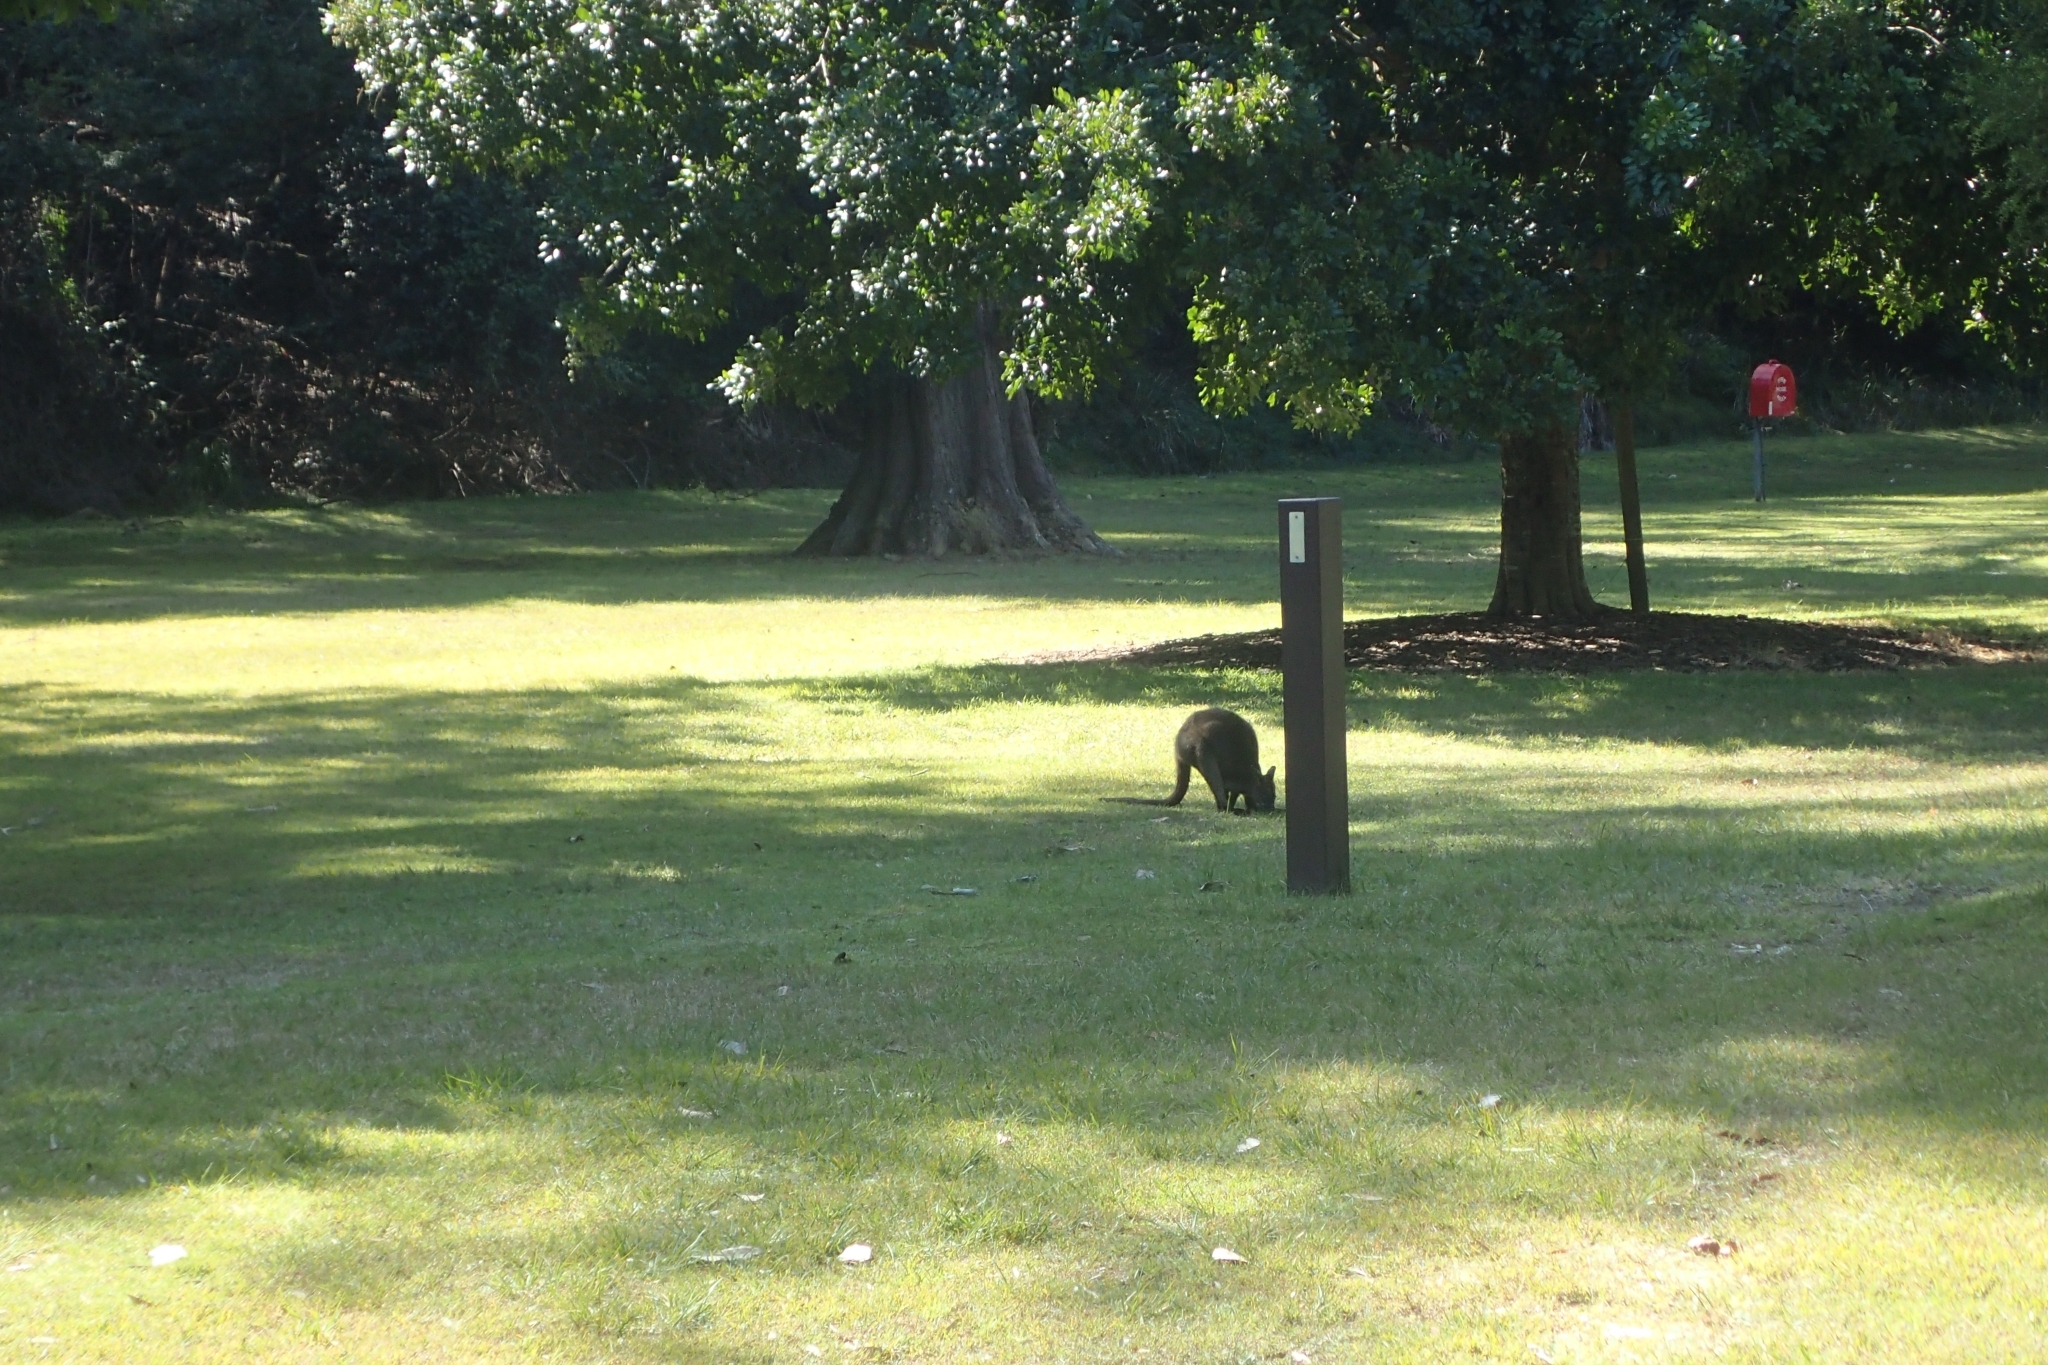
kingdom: Animalia
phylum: Chordata
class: Mammalia
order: Diprotodontia
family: Macropodidae
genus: Wallabia
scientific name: Wallabia bicolor
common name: Swamp wallaby
